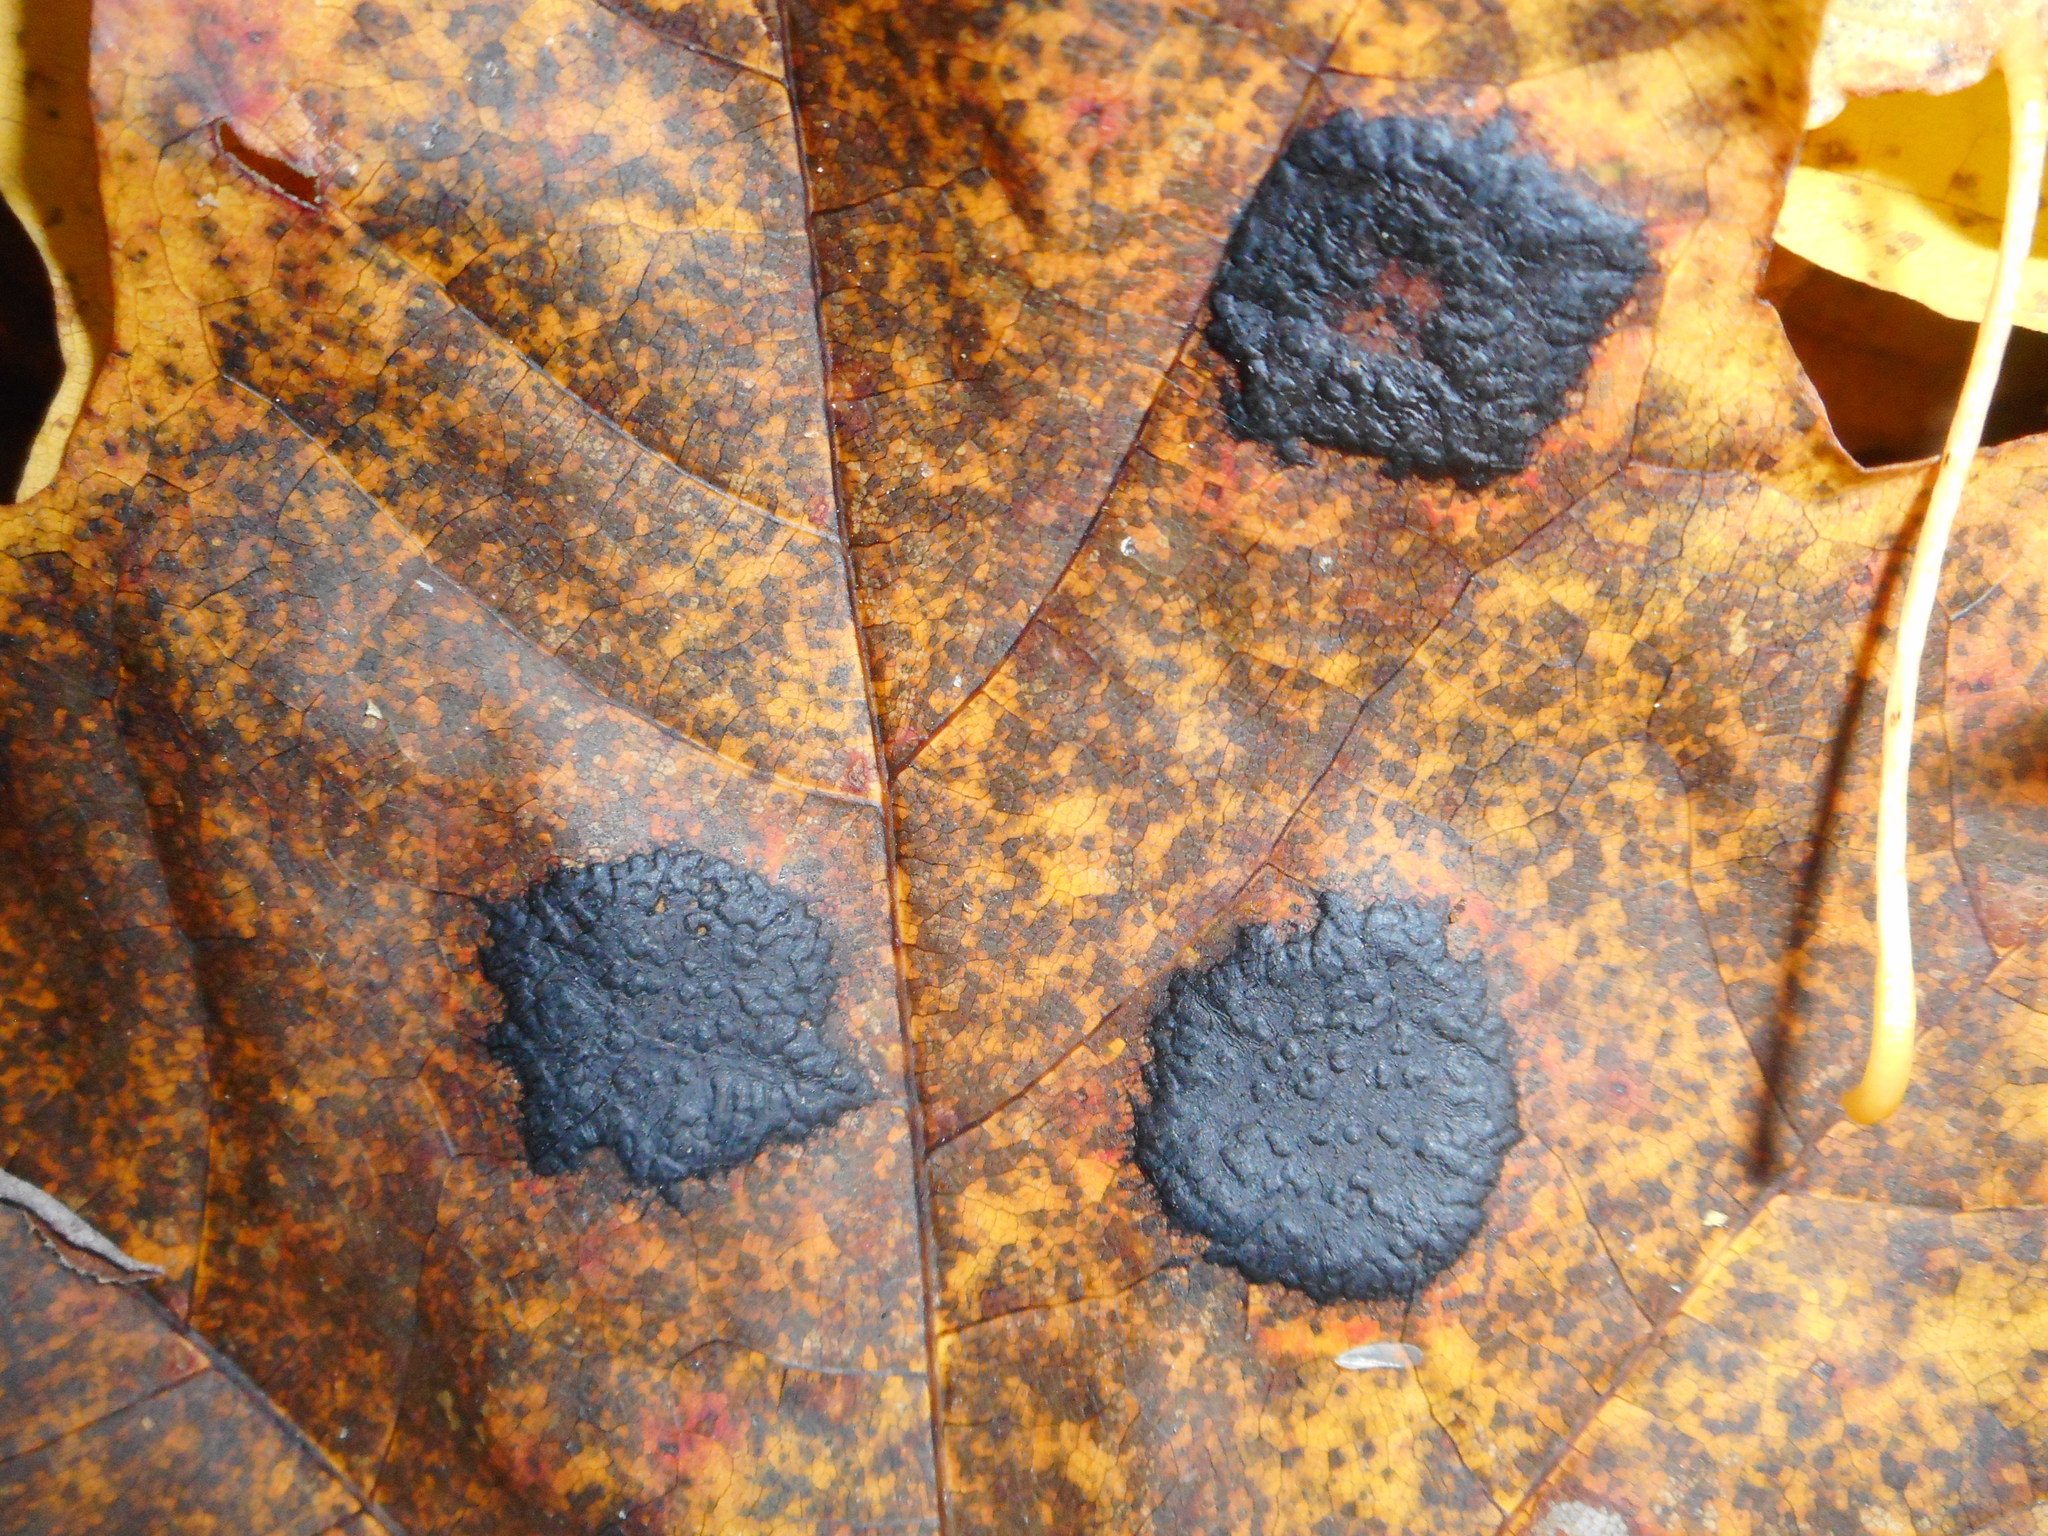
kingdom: Fungi
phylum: Ascomycota
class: Leotiomycetes
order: Rhytismatales
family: Rhytismataceae
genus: Rhytisma
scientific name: Rhytisma acerinum
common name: European tar spot
